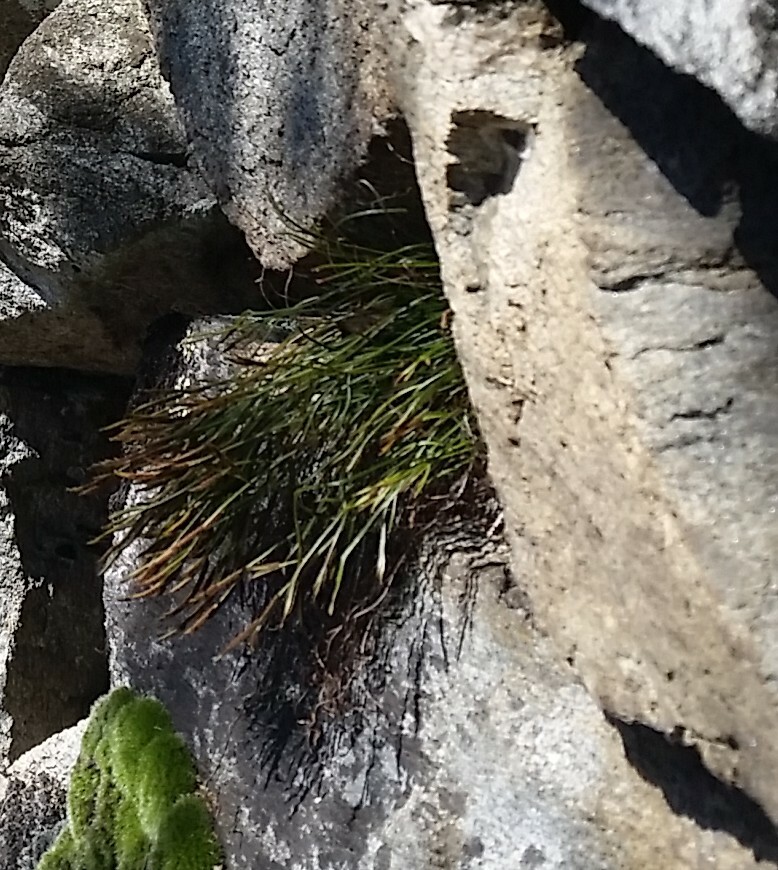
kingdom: Plantae
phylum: Tracheophyta
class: Polypodiopsida
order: Polypodiales
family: Aspleniaceae
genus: Asplenium
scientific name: Asplenium septentrionale
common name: Forked spleenwort
